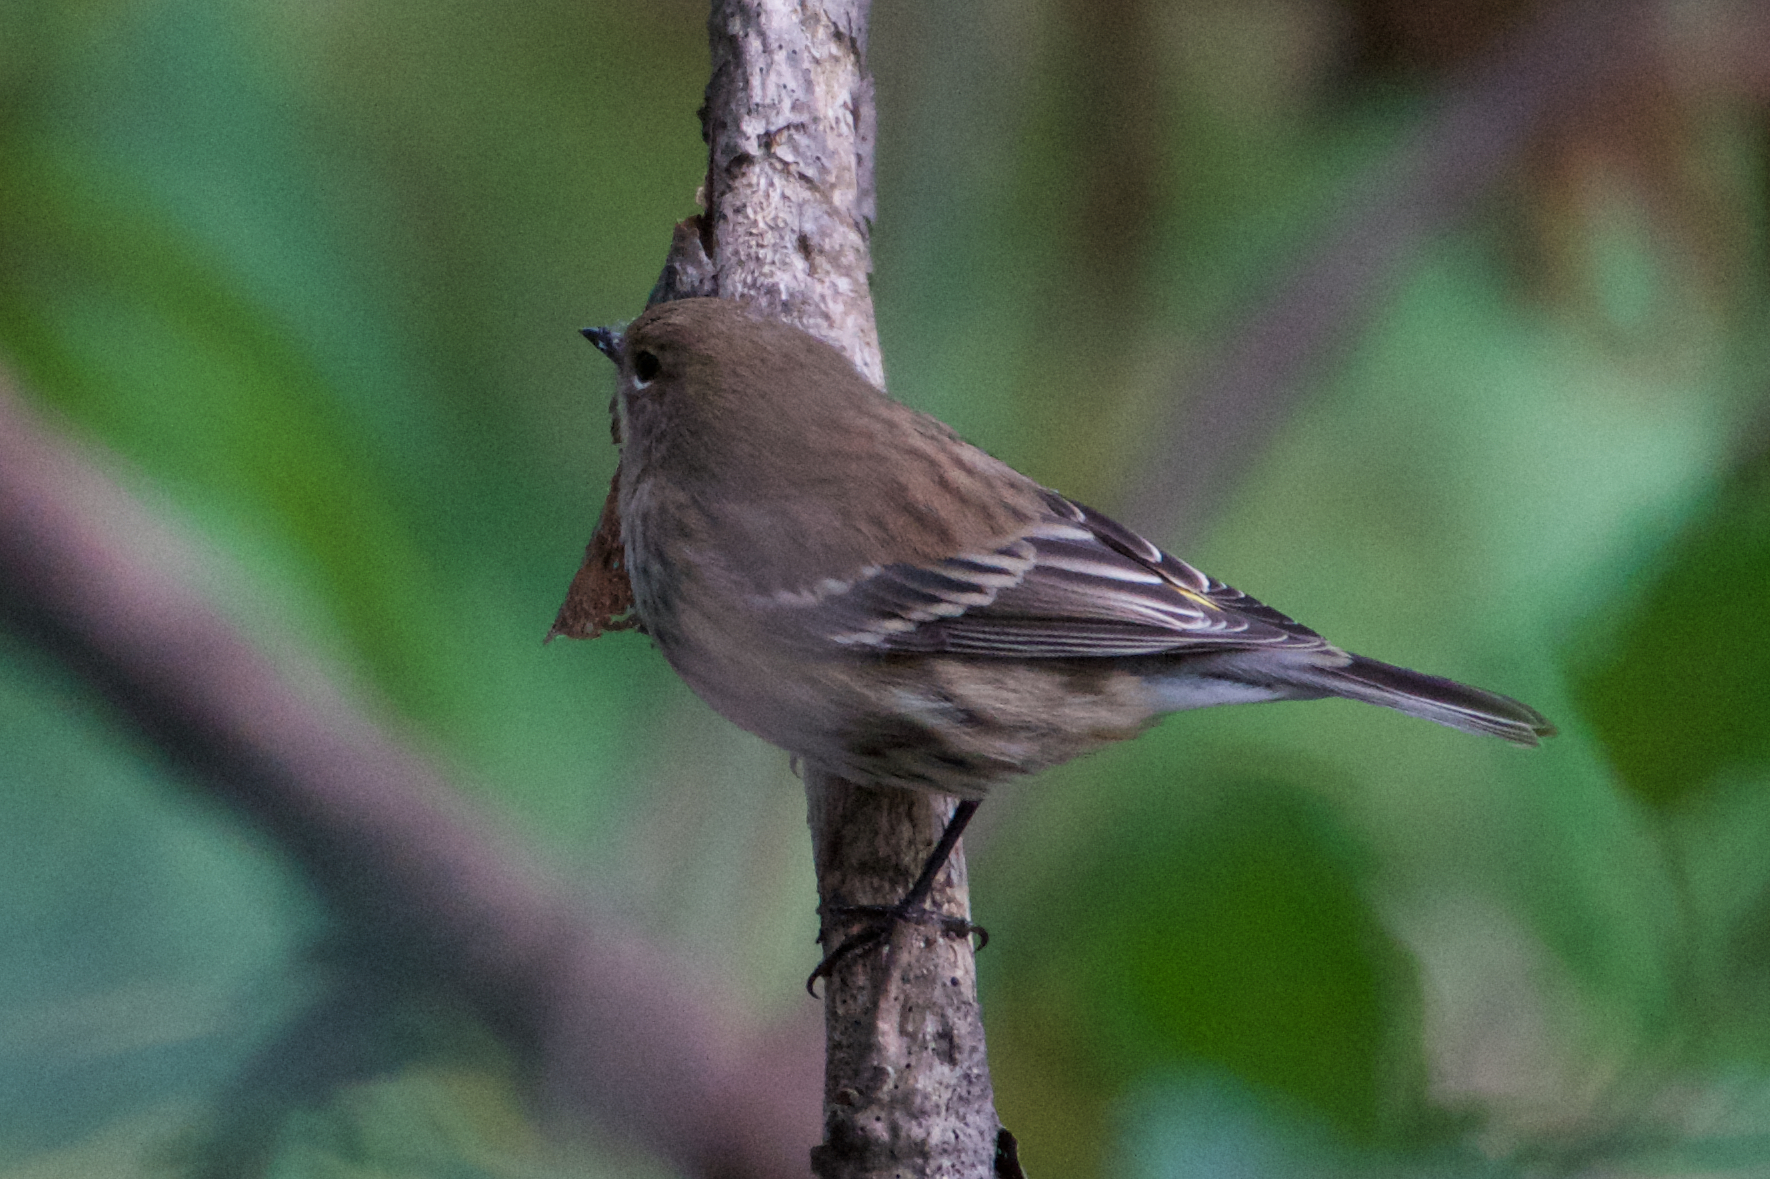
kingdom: Animalia
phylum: Chordata
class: Aves
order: Passeriformes
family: Parulidae
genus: Setophaga
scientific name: Setophaga coronata
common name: Myrtle warbler
